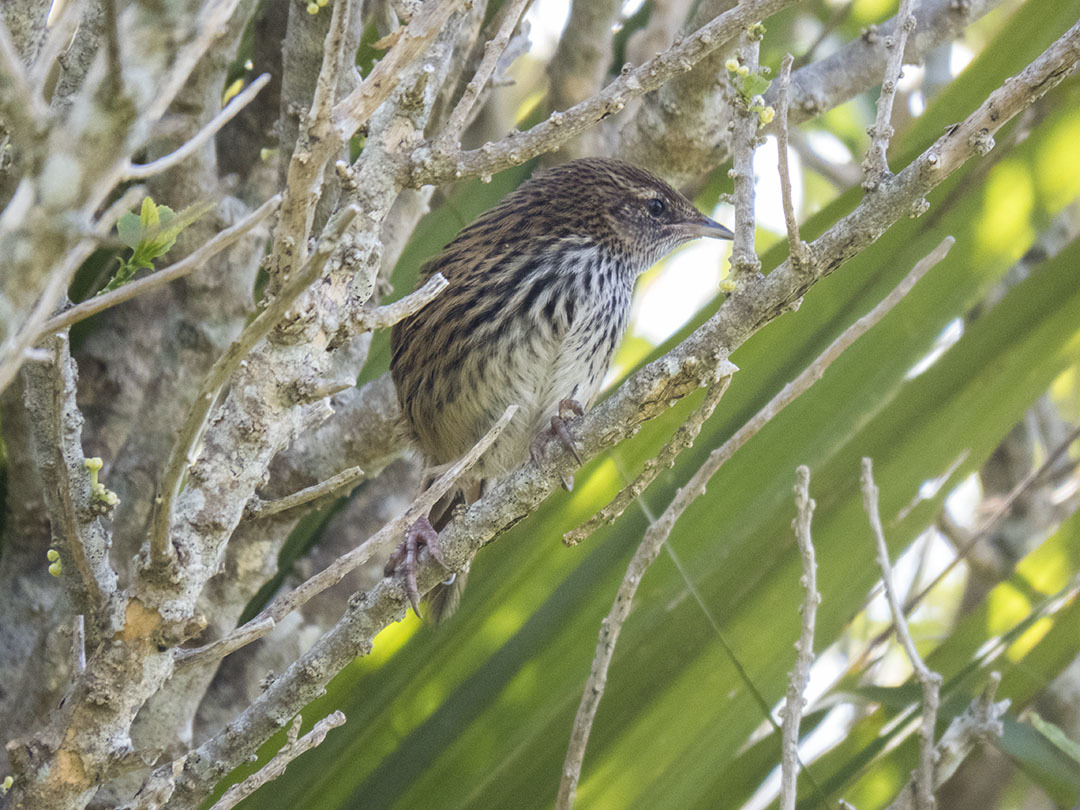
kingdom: Animalia
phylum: Chordata
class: Aves
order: Passeriformes
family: Locustellidae
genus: Poodytes
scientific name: Poodytes punctatus
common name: New zealand fernbird
